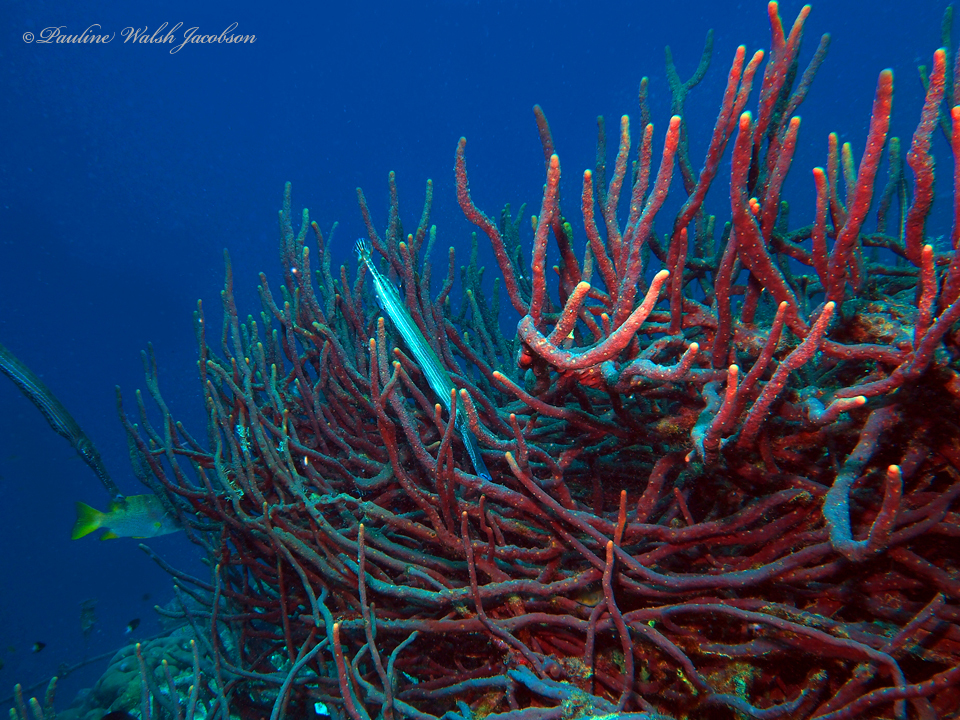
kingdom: Animalia
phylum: Chordata
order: Syngnathiformes
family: Aulostomidae
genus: Aulostomus
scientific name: Aulostomus maculatus
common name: West atlantic trumpetfish
